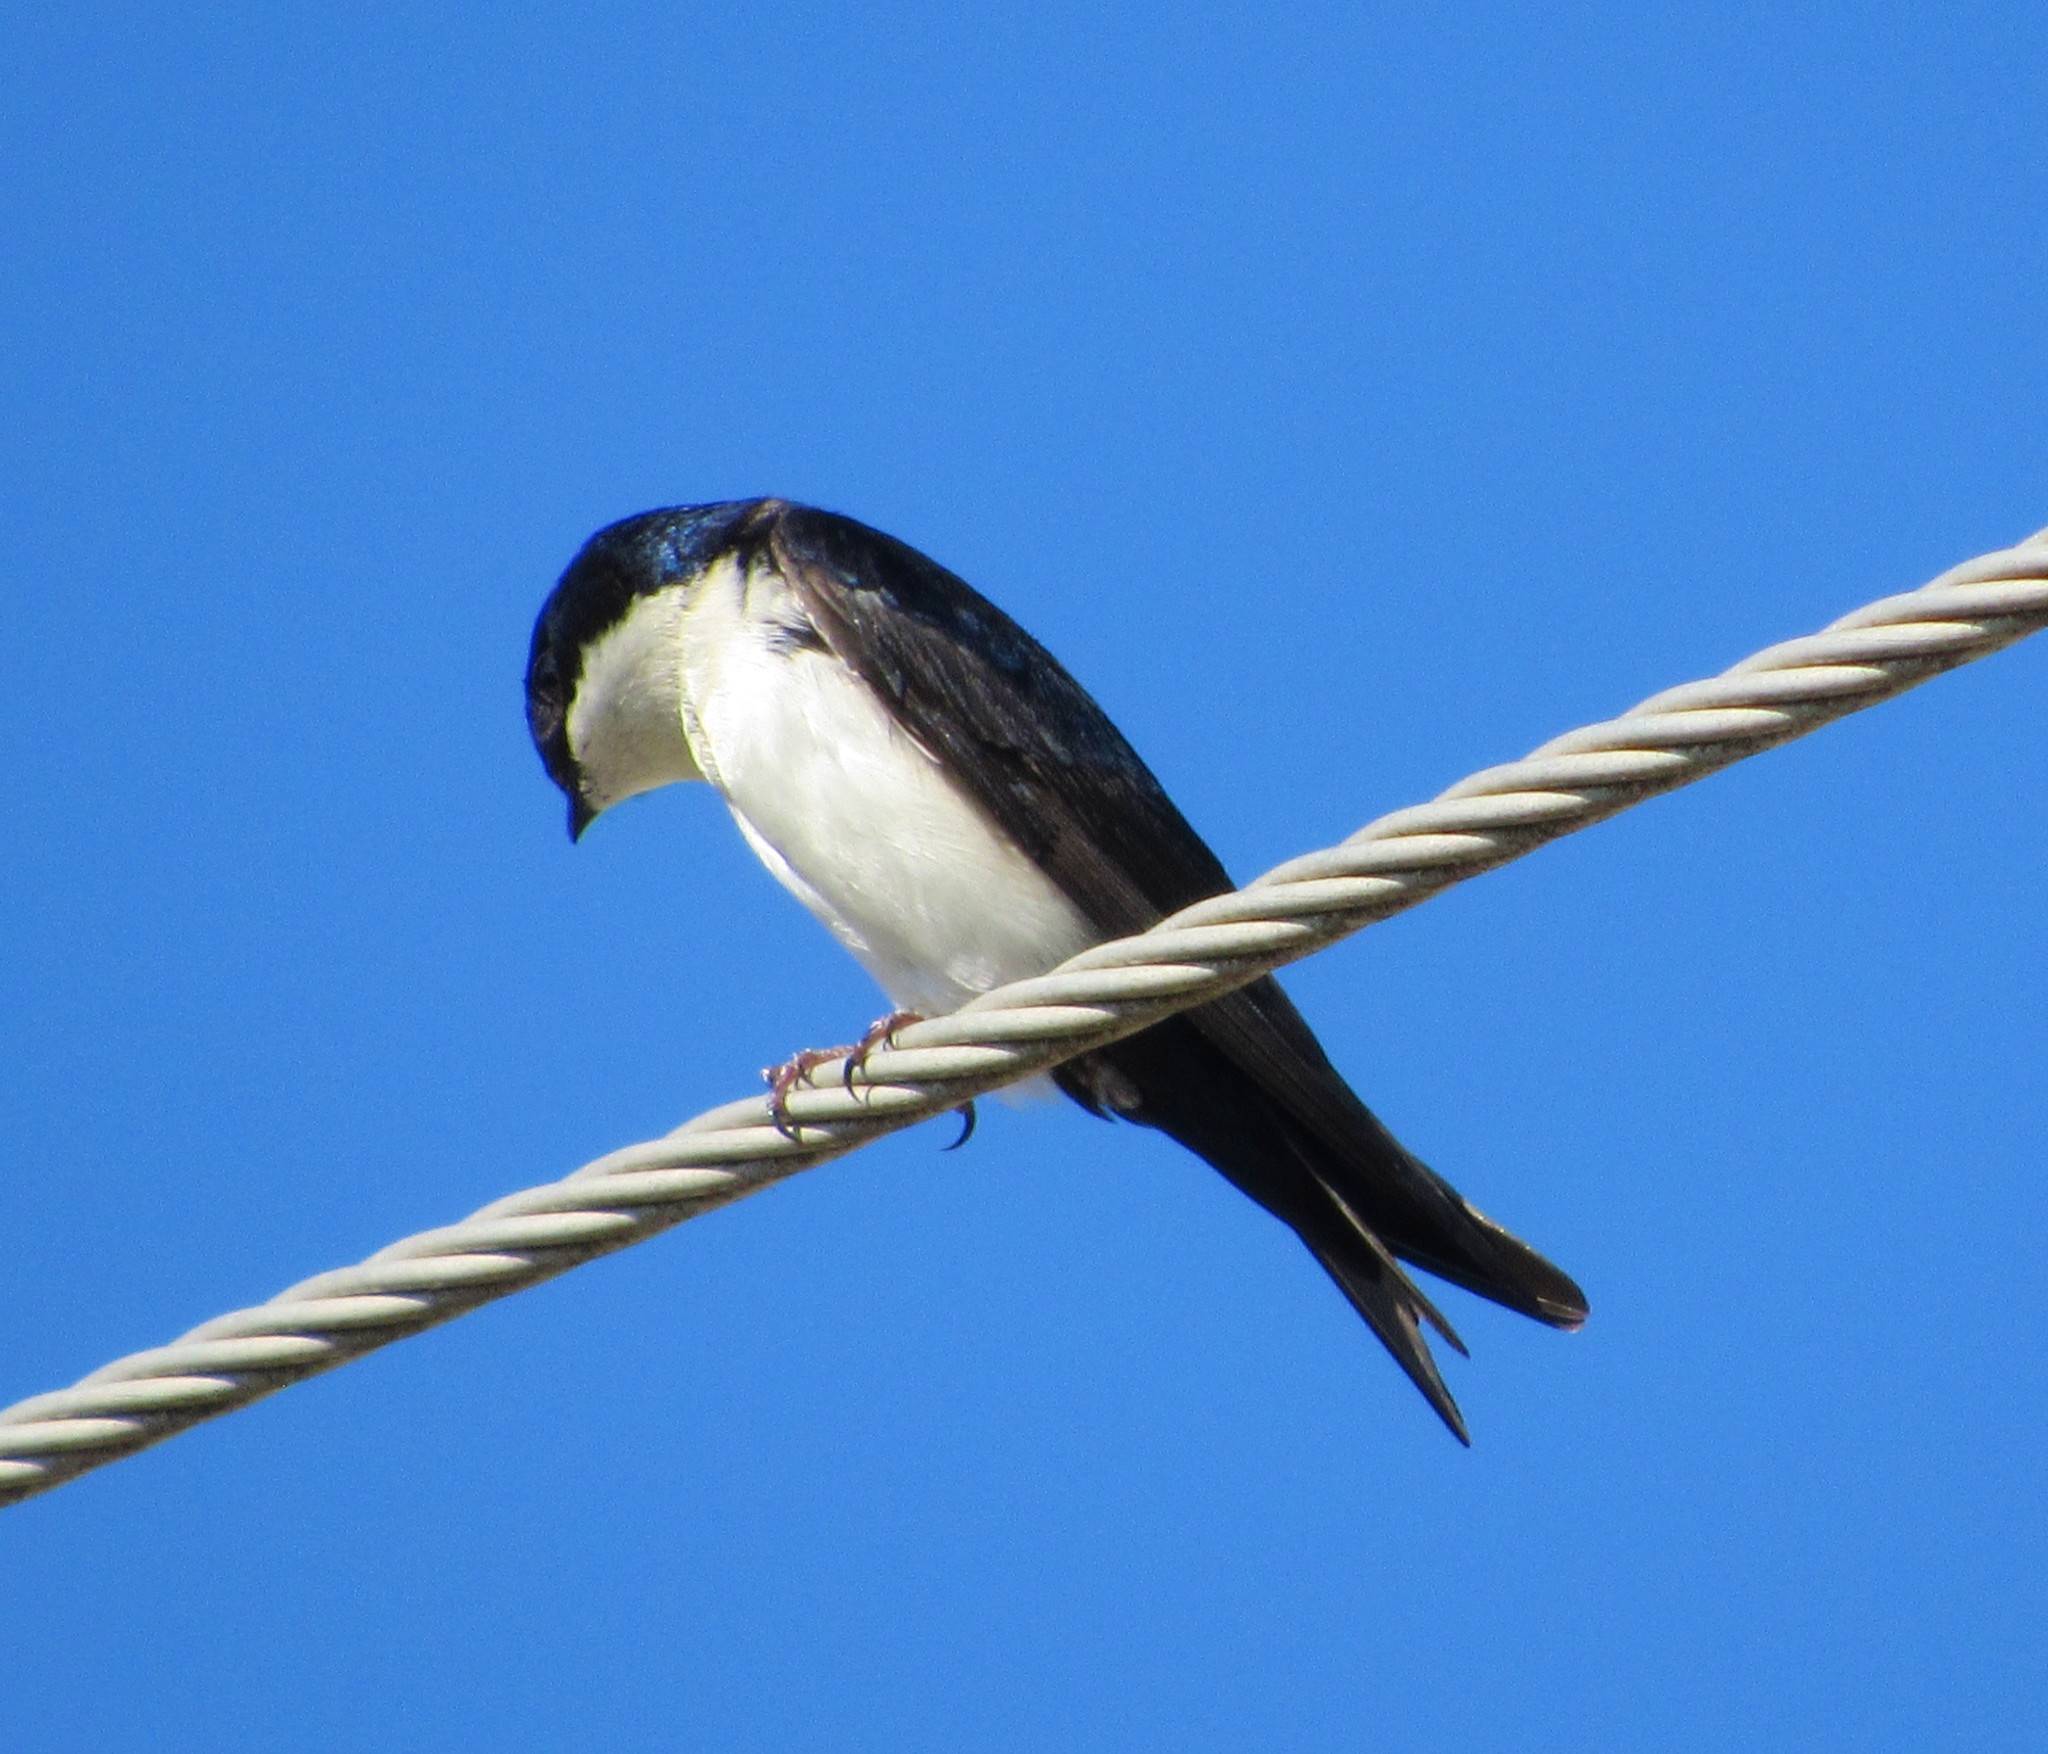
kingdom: Animalia
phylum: Chordata
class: Aves
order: Passeriformes
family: Hirundinidae
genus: Notiochelidon
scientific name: Notiochelidon cyanoleuca
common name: Blue-and-white swallow
